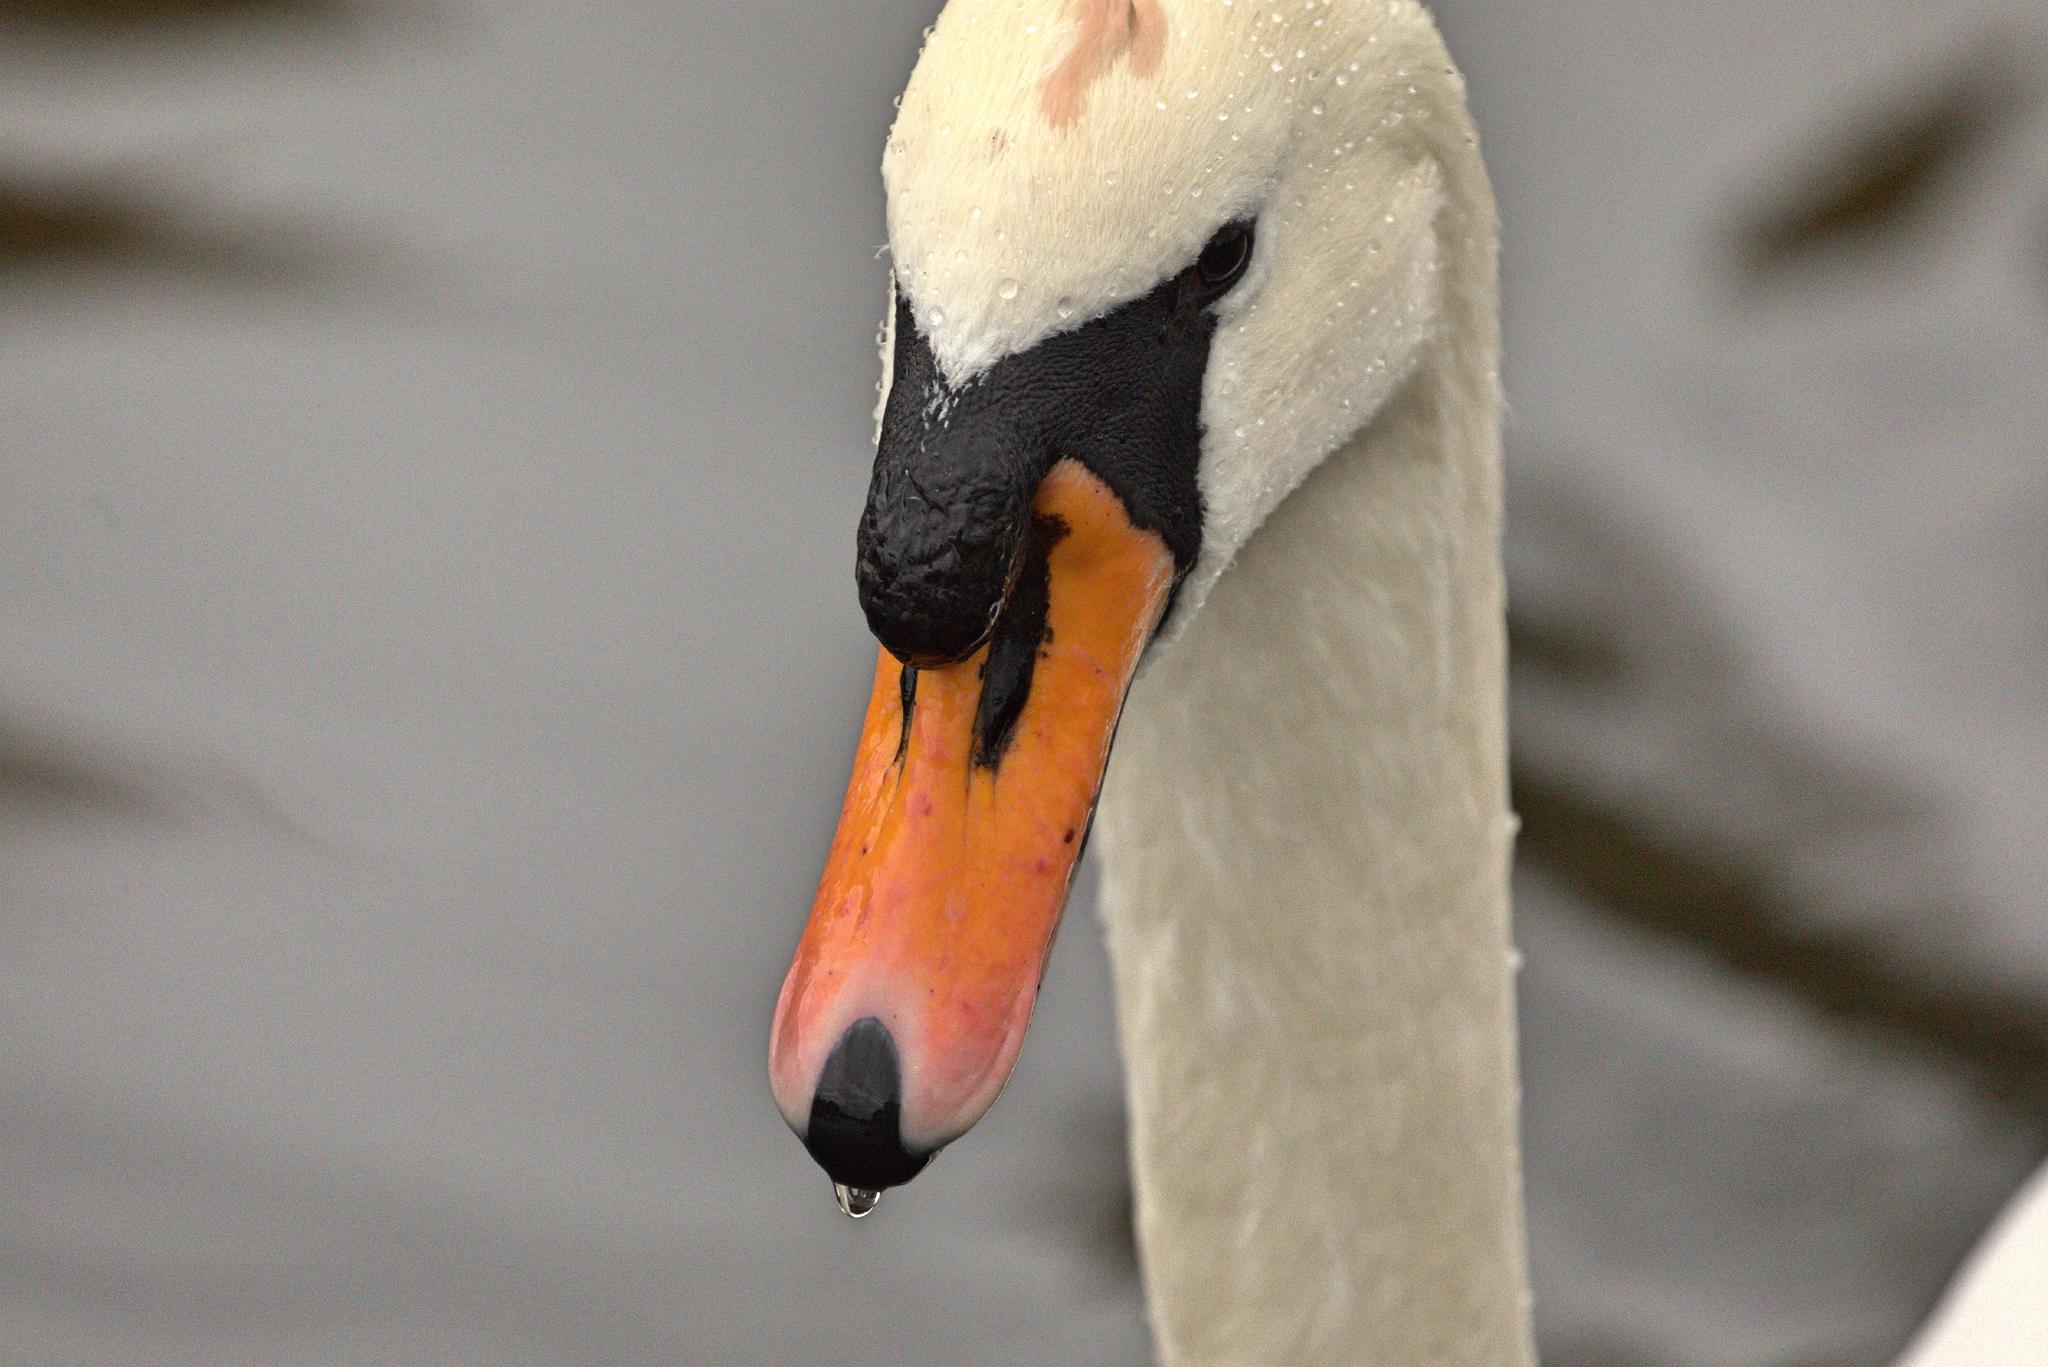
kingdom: Animalia
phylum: Chordata
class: Aves
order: Anseriformes
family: Anatidae
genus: Cygnus
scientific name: Cygnus olor
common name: Mute swan
